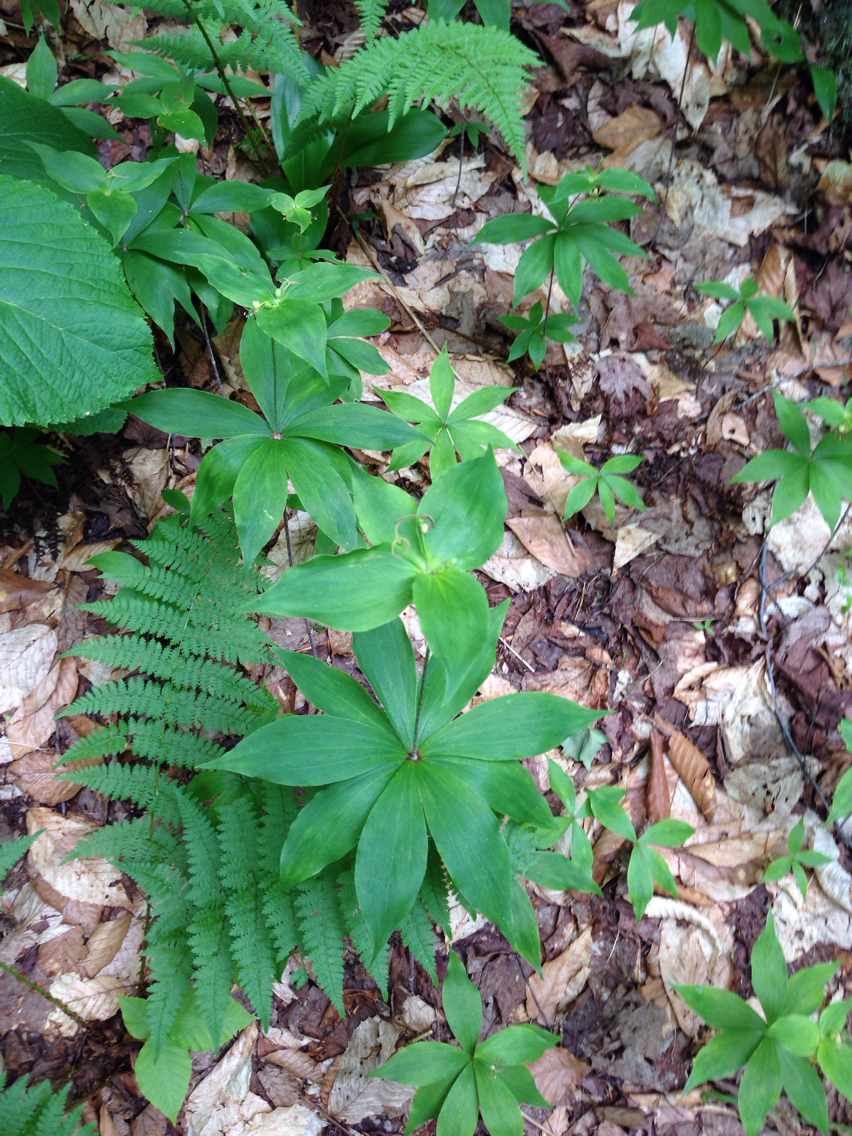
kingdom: Plantae
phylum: Tracheophyta
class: Liliopsida
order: Liliales
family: Liliaceae
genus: Medeola
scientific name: Medeola virginiana
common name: Indian cucumber-root
